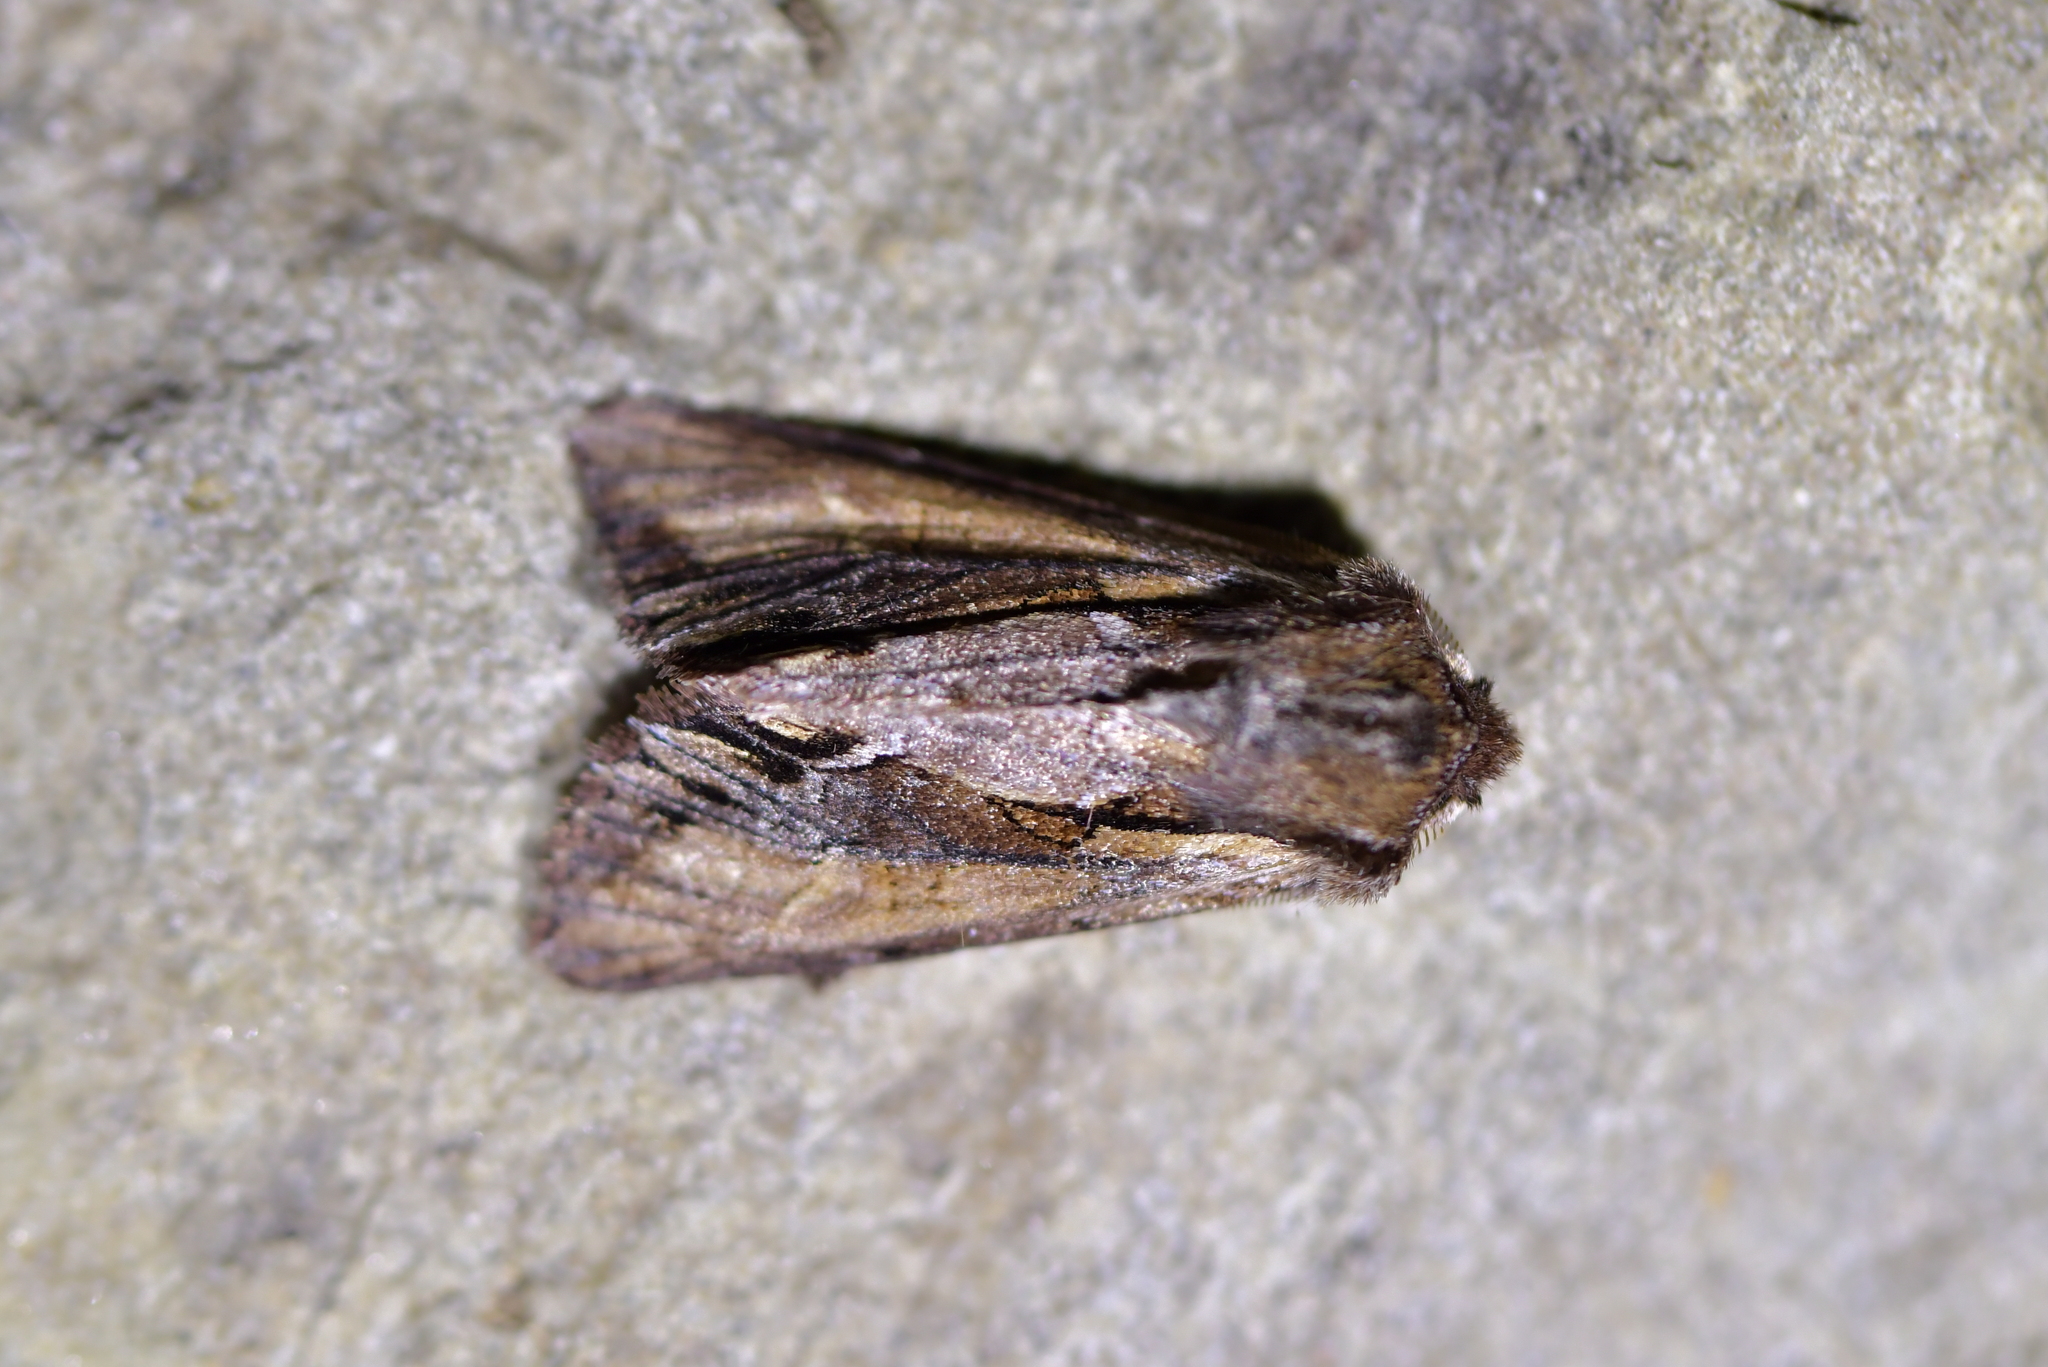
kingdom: Animalia
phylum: Arthropoda
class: Insecta
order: Lepidoptera
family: Noctuidae
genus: Ichneutica
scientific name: Ichneutica
